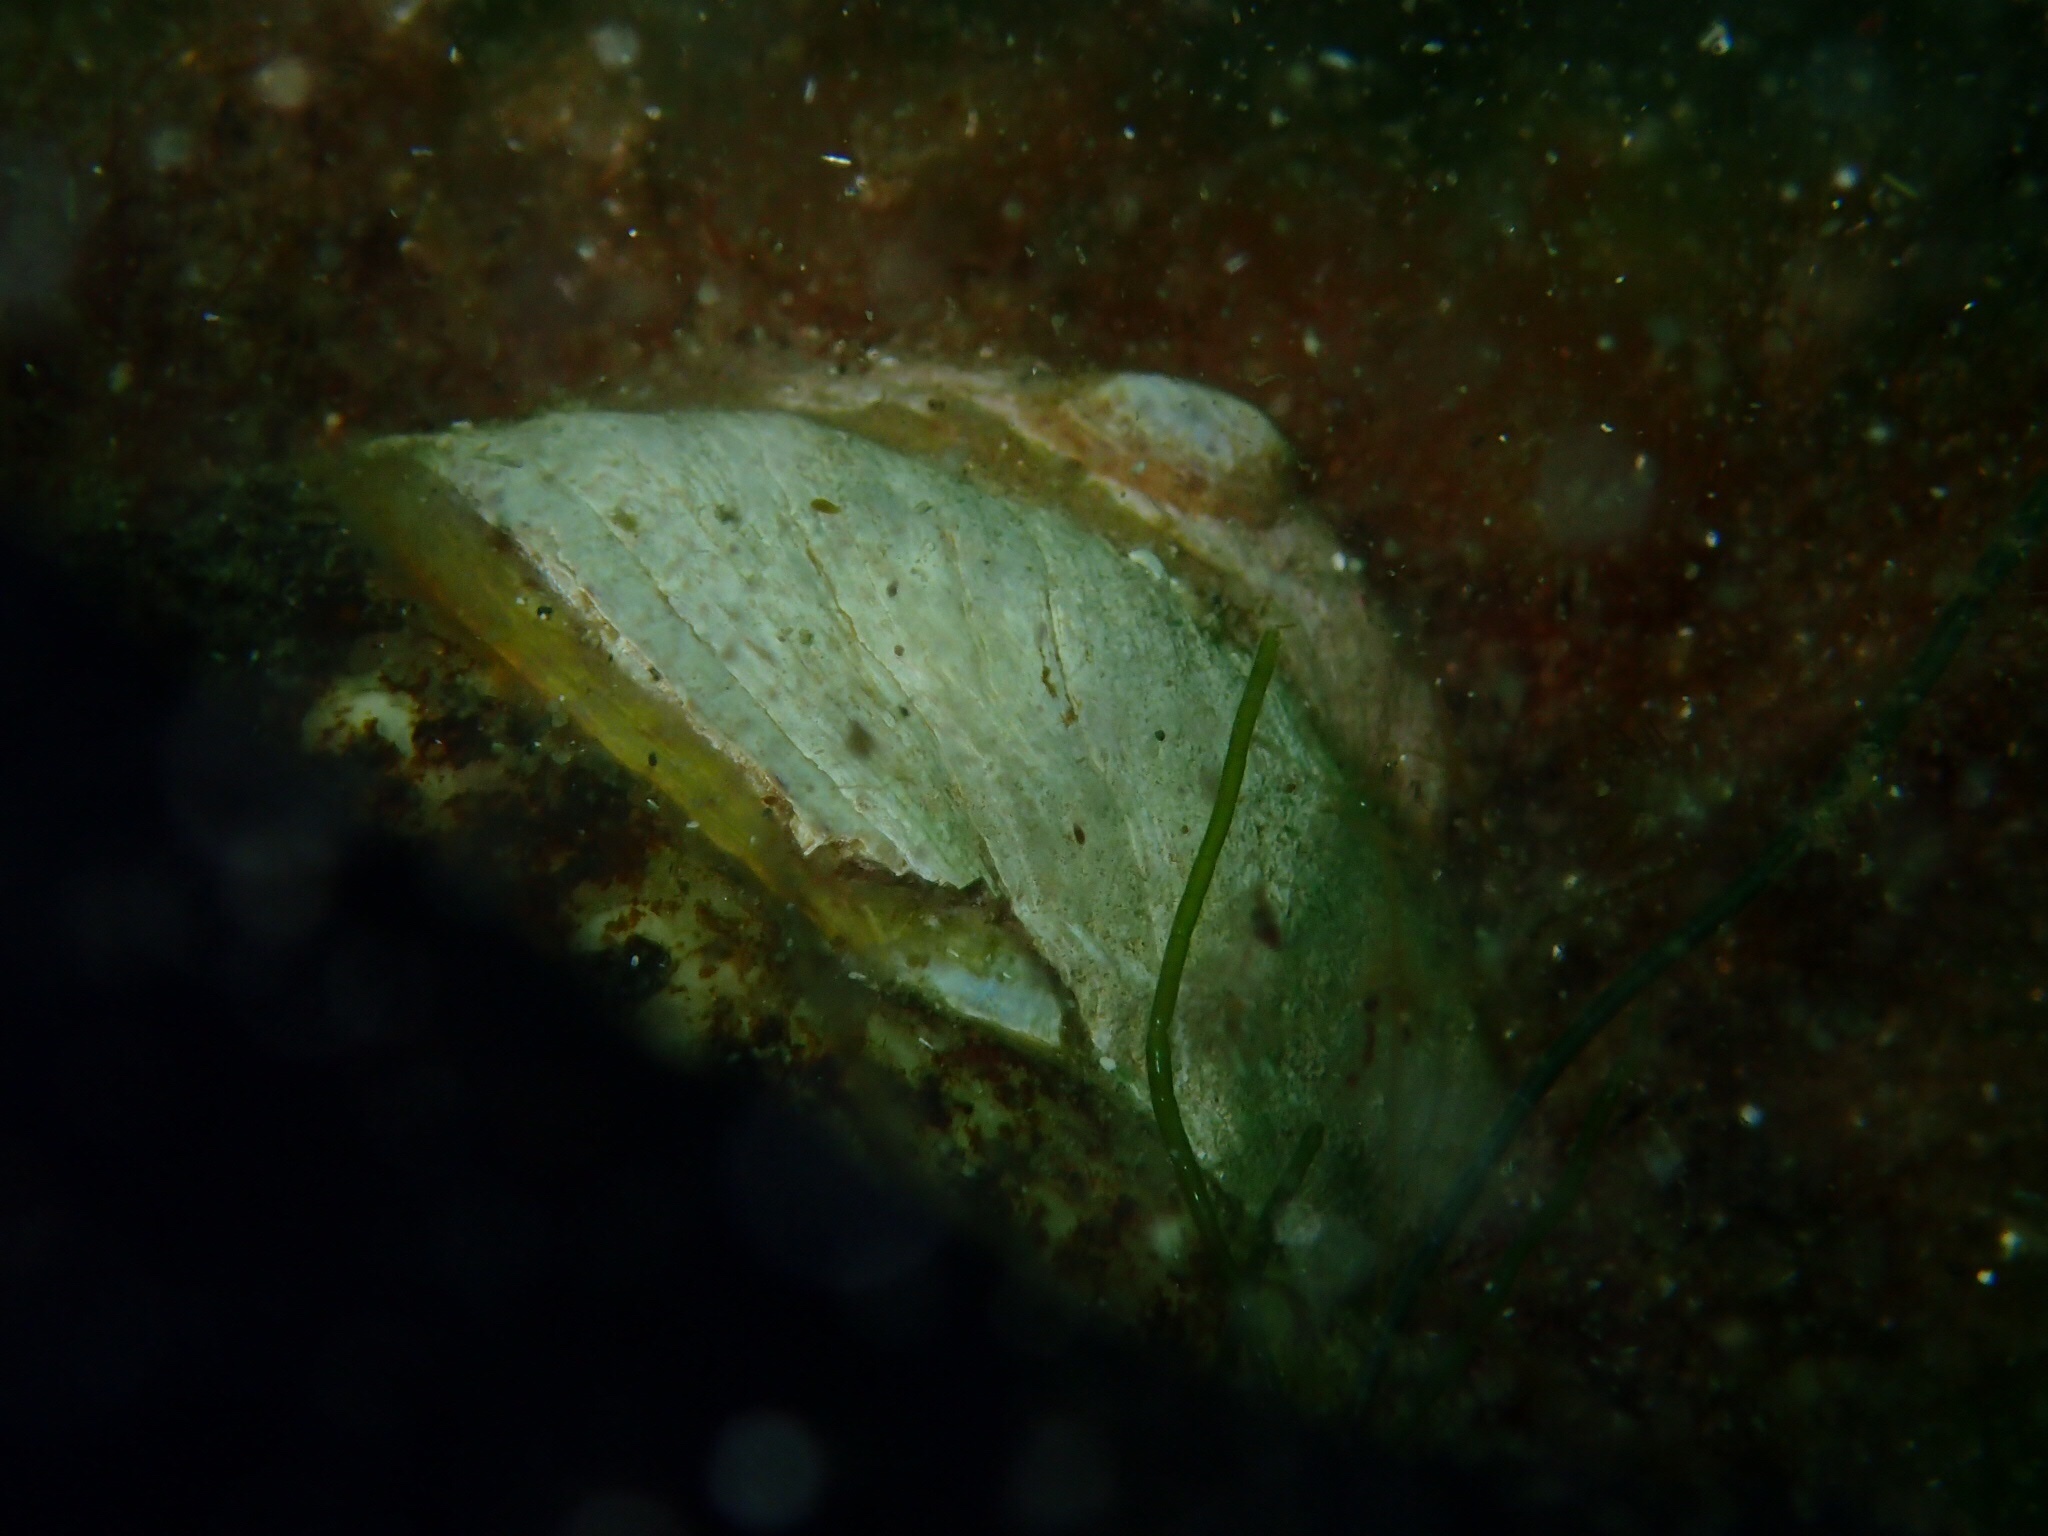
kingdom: Animalia
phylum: Mollusca
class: Gastropoda
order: Littorinimorpha
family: Calyptraeidae
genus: Crepidula
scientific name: Crepidula fornicata
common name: Slipper limpet
